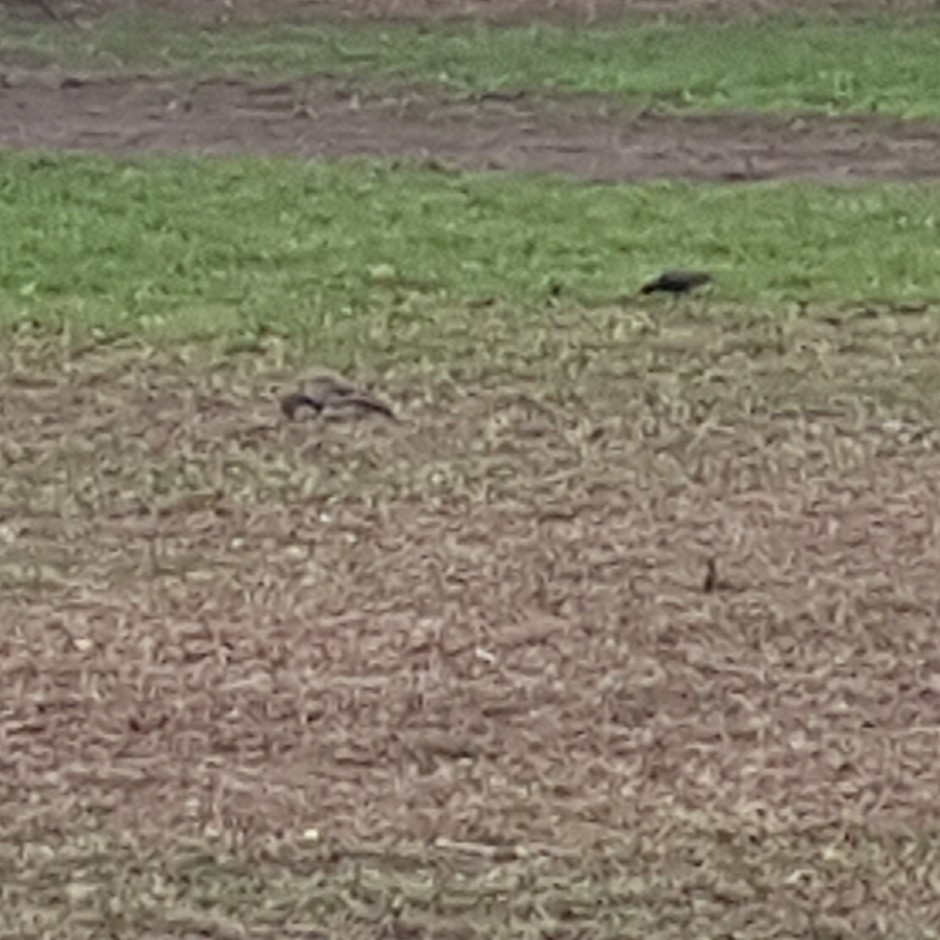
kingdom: Animalia
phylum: Chordata
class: Aves
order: Piciformes
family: Picidae
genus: Colaptes
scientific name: Colaptes auratus
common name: Northern flicker
